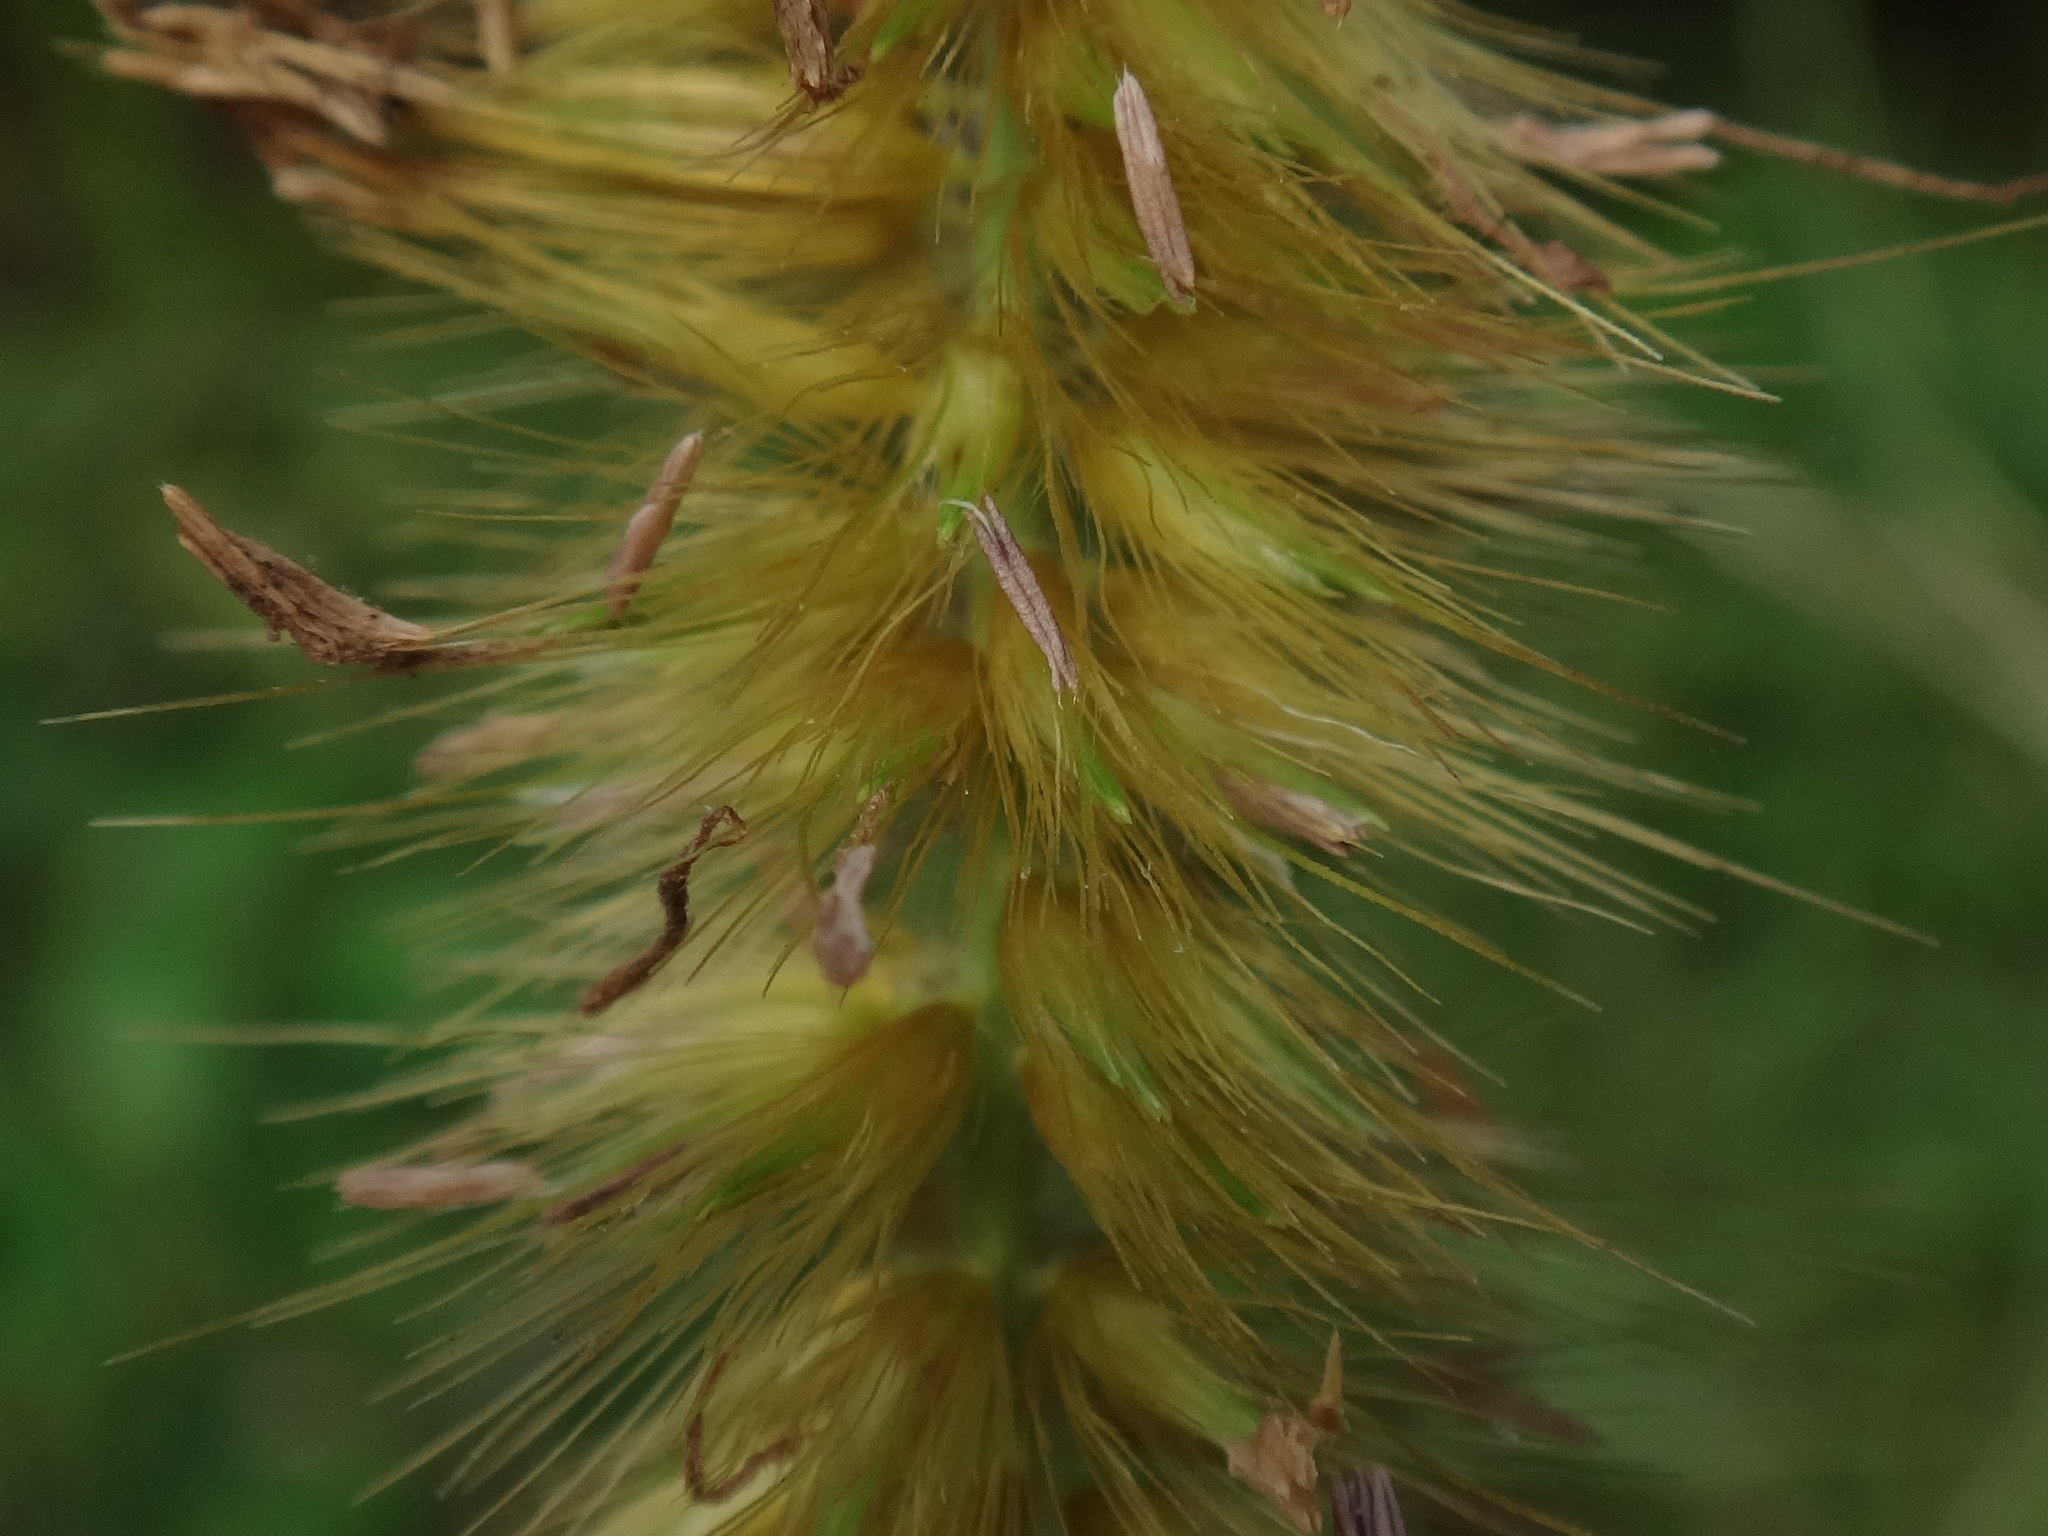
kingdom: Plantae
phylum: Tracheophyta
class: Liliopsida
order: Poales
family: Poaceae
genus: Cenchrus
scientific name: Cenchrus purpureus
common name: Elephant grass
